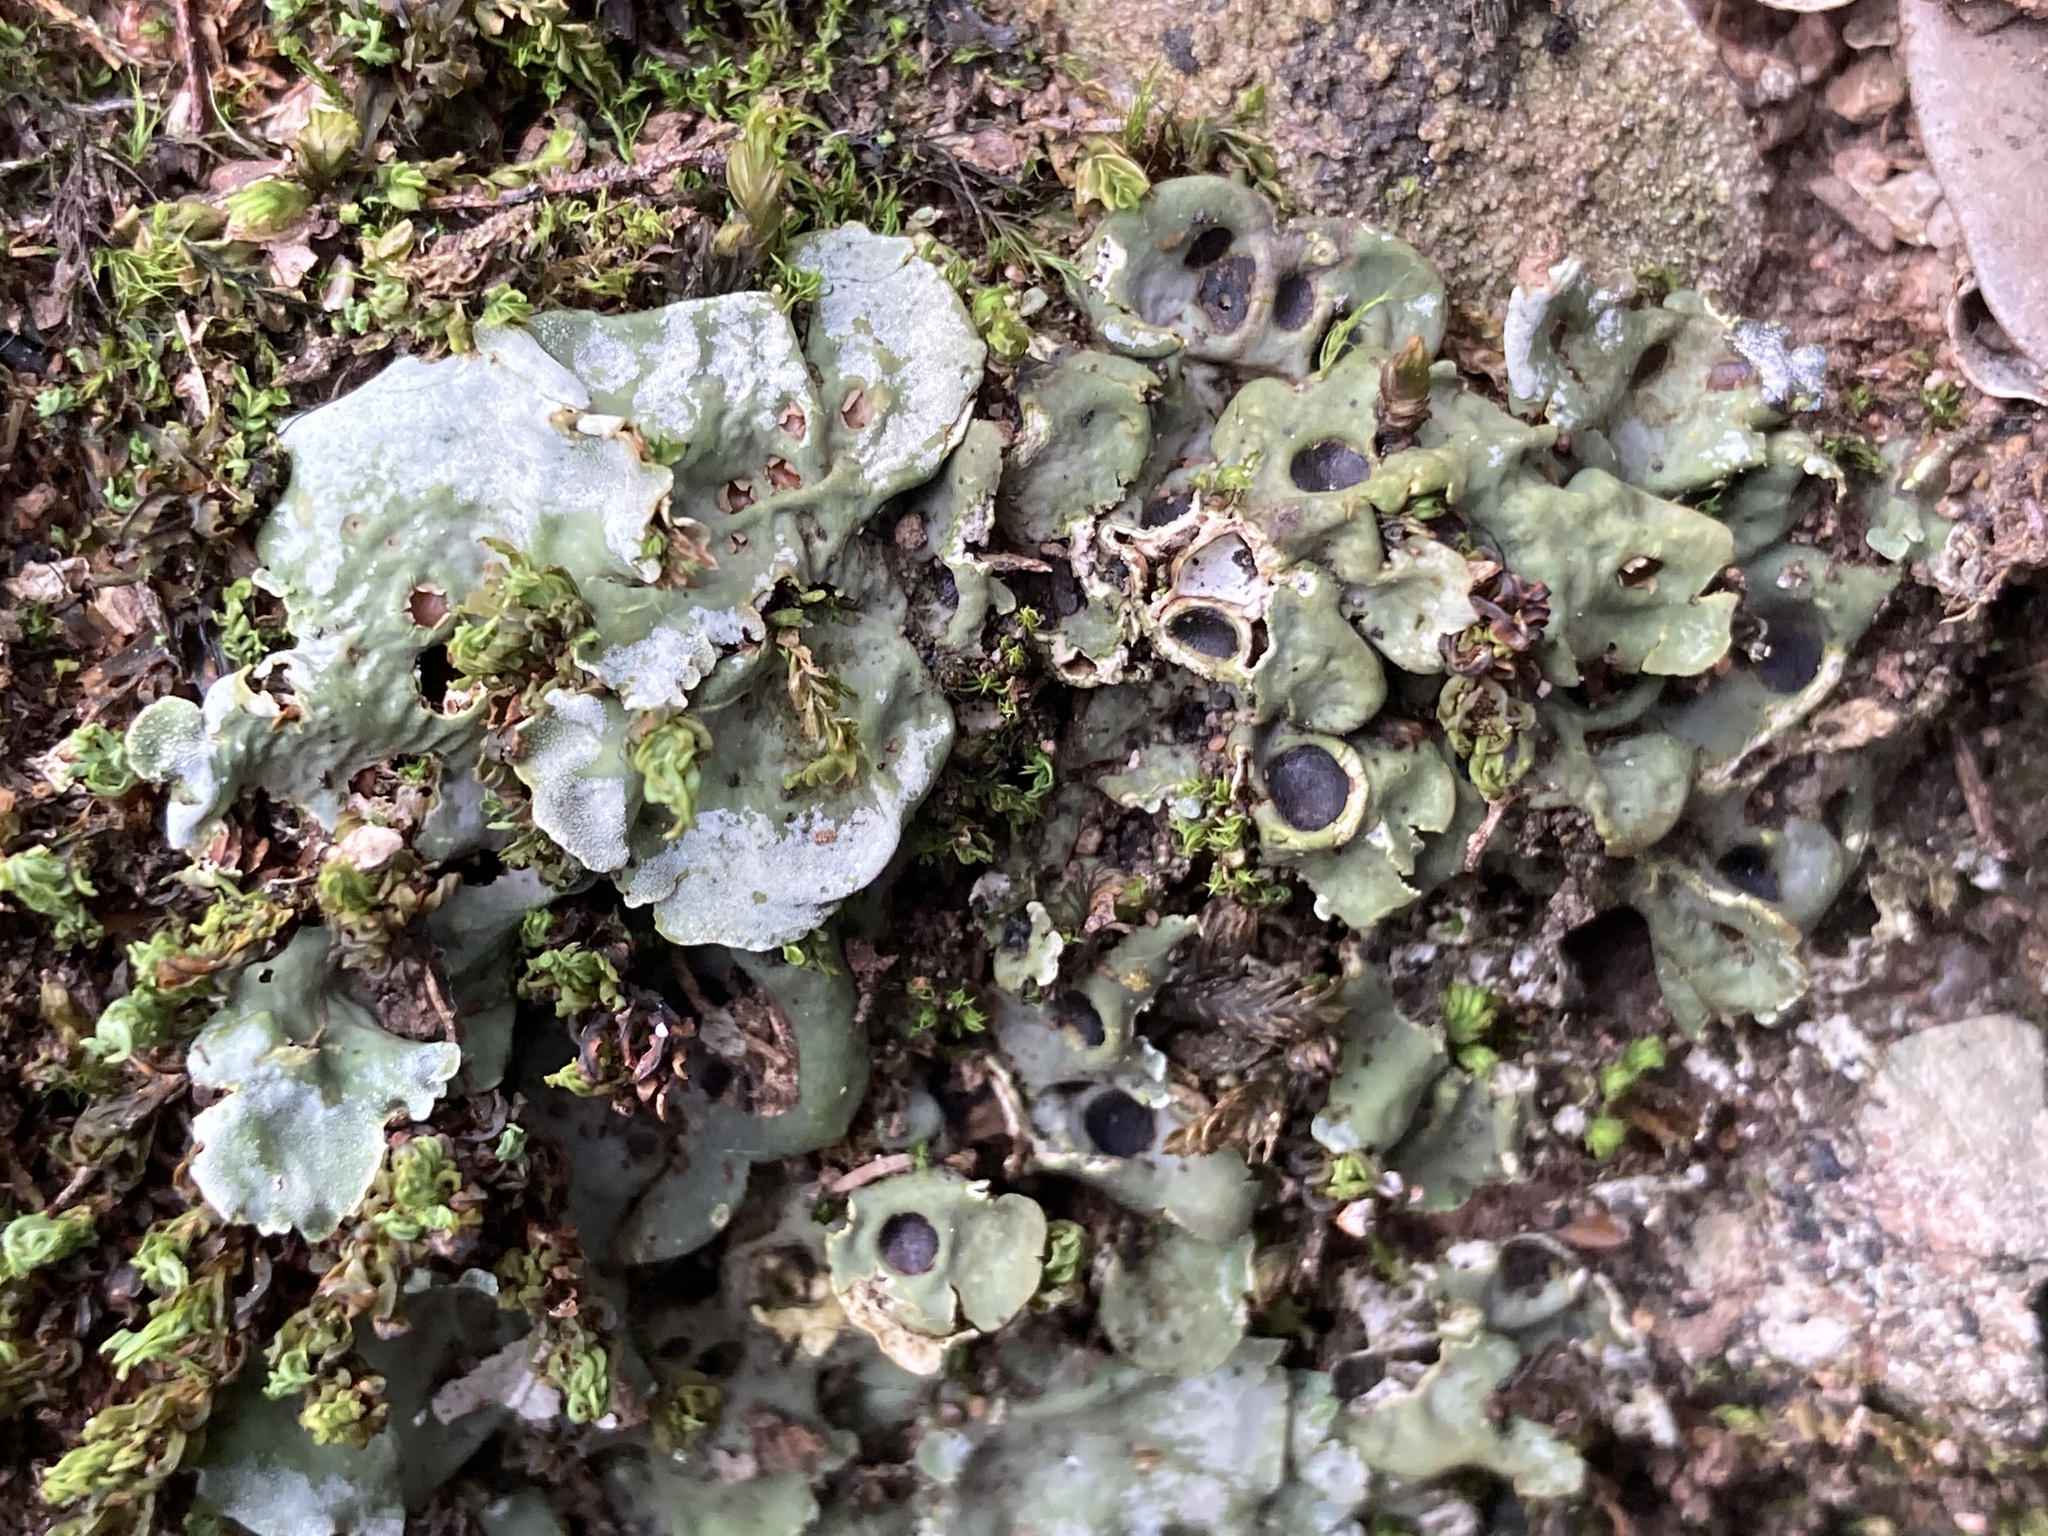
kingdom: Fungi
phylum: Ascomycota
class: Lecanoromycetes
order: Peltigerales
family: Peltigeraceae
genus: Solorina
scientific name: Solorina saccata
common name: Common chocolate chip lichen
